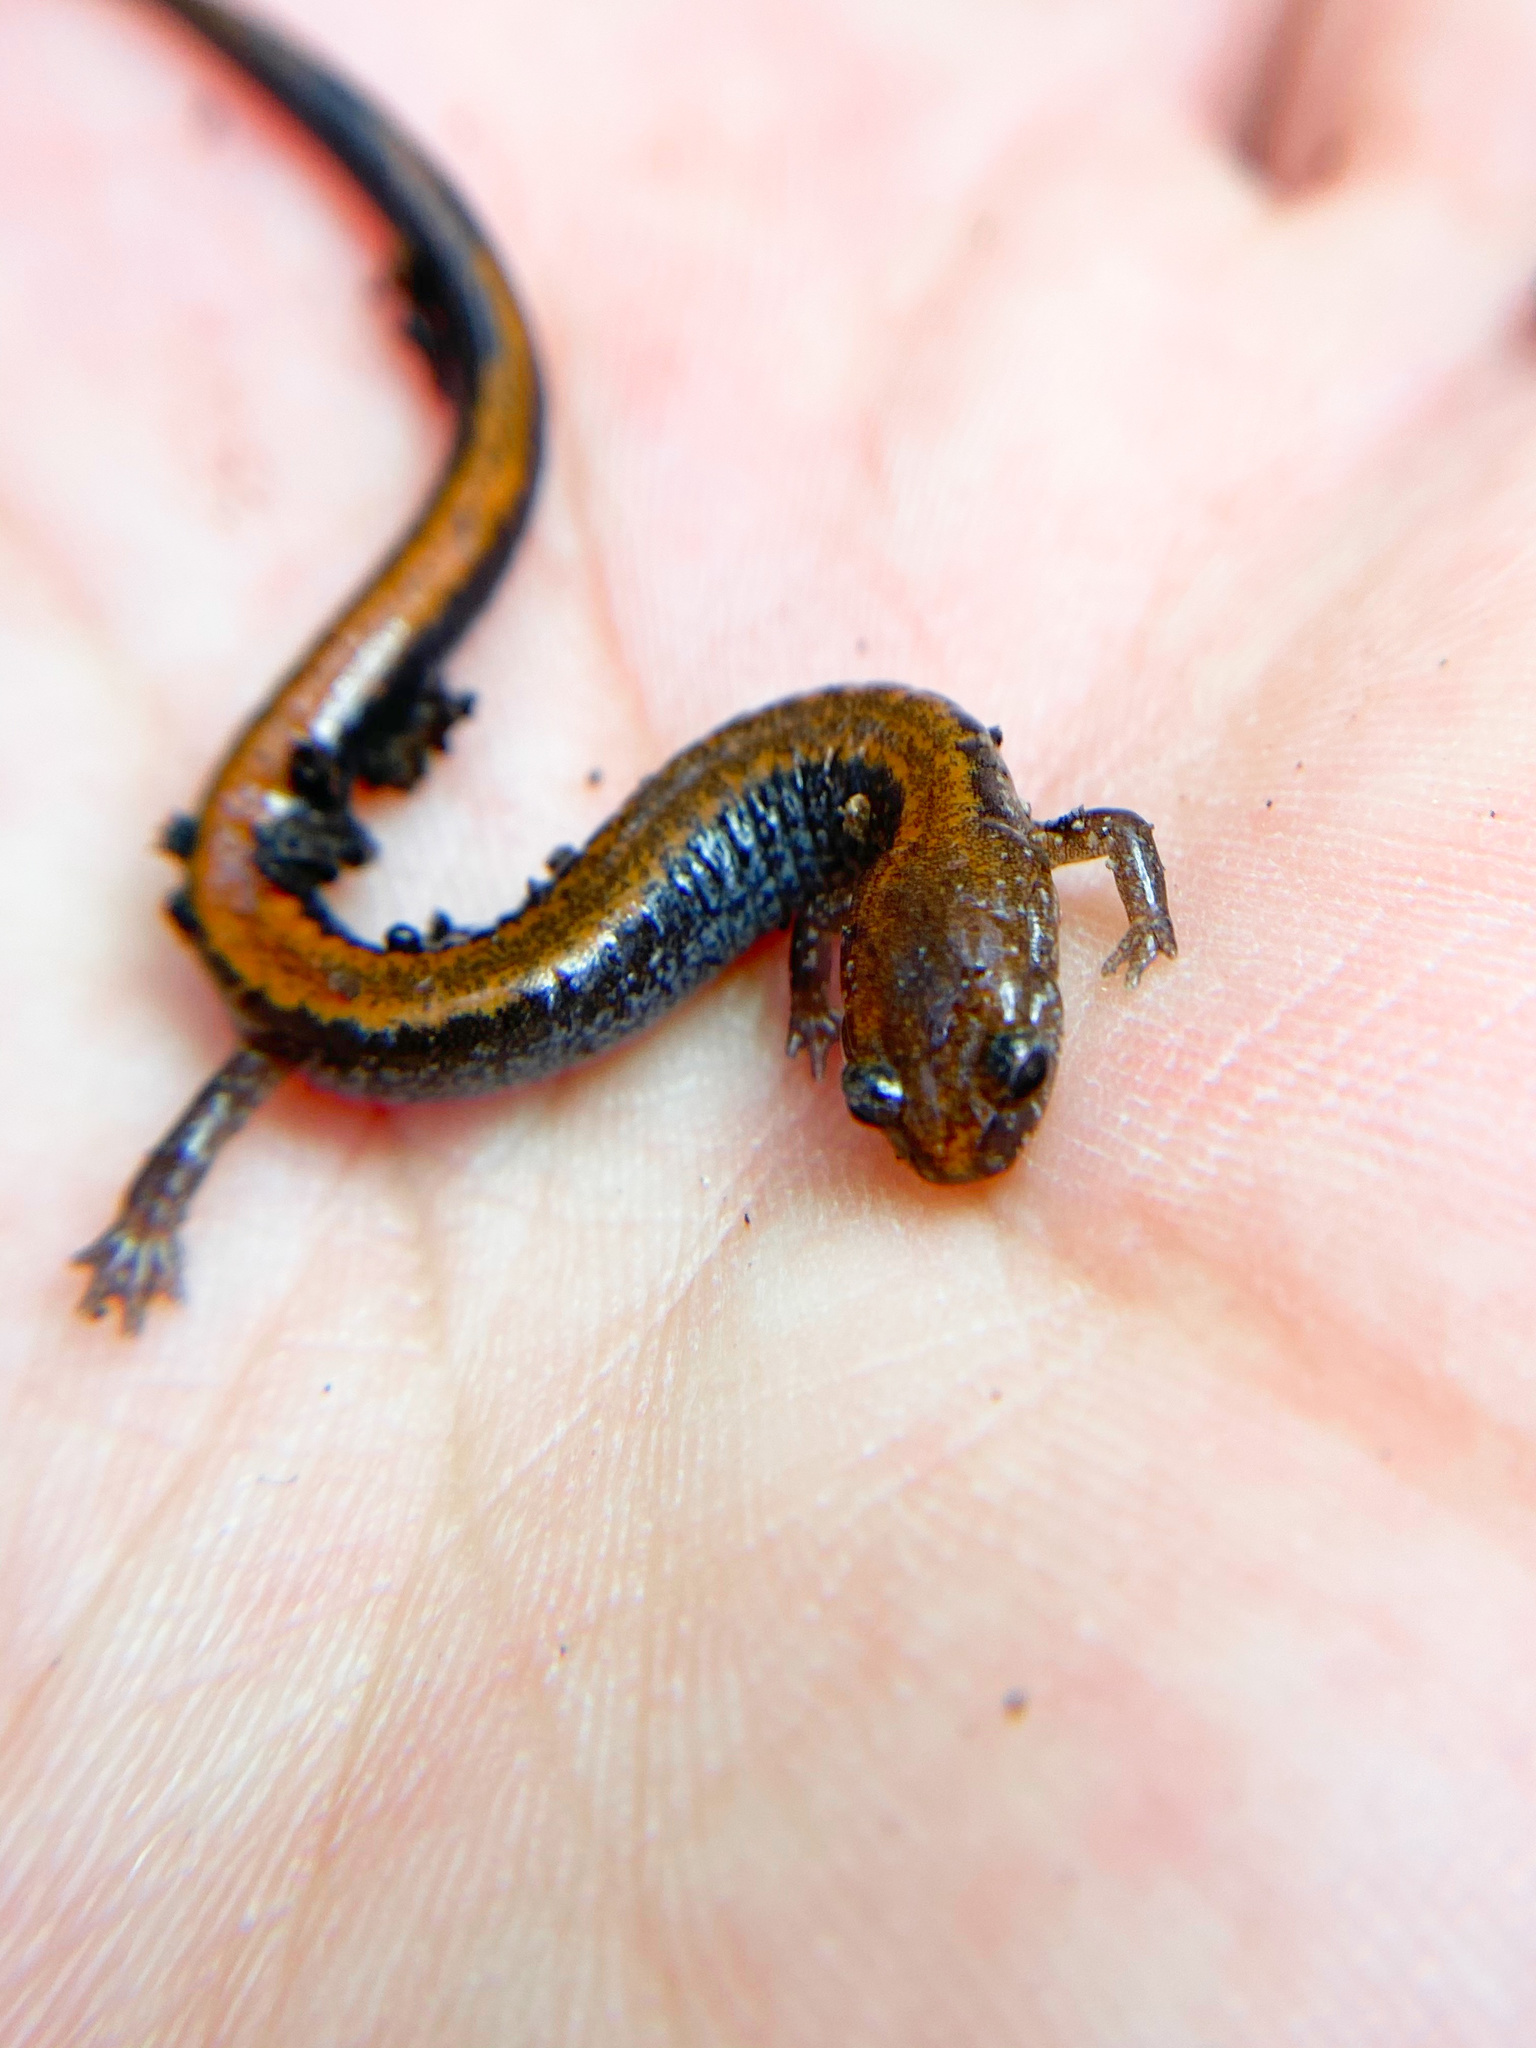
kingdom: Animalia
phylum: Chordata
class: Amphibia
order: Caudata
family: Plethodontidae
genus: Plethodon
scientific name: Plethodon cinereus
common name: Redback salamander
